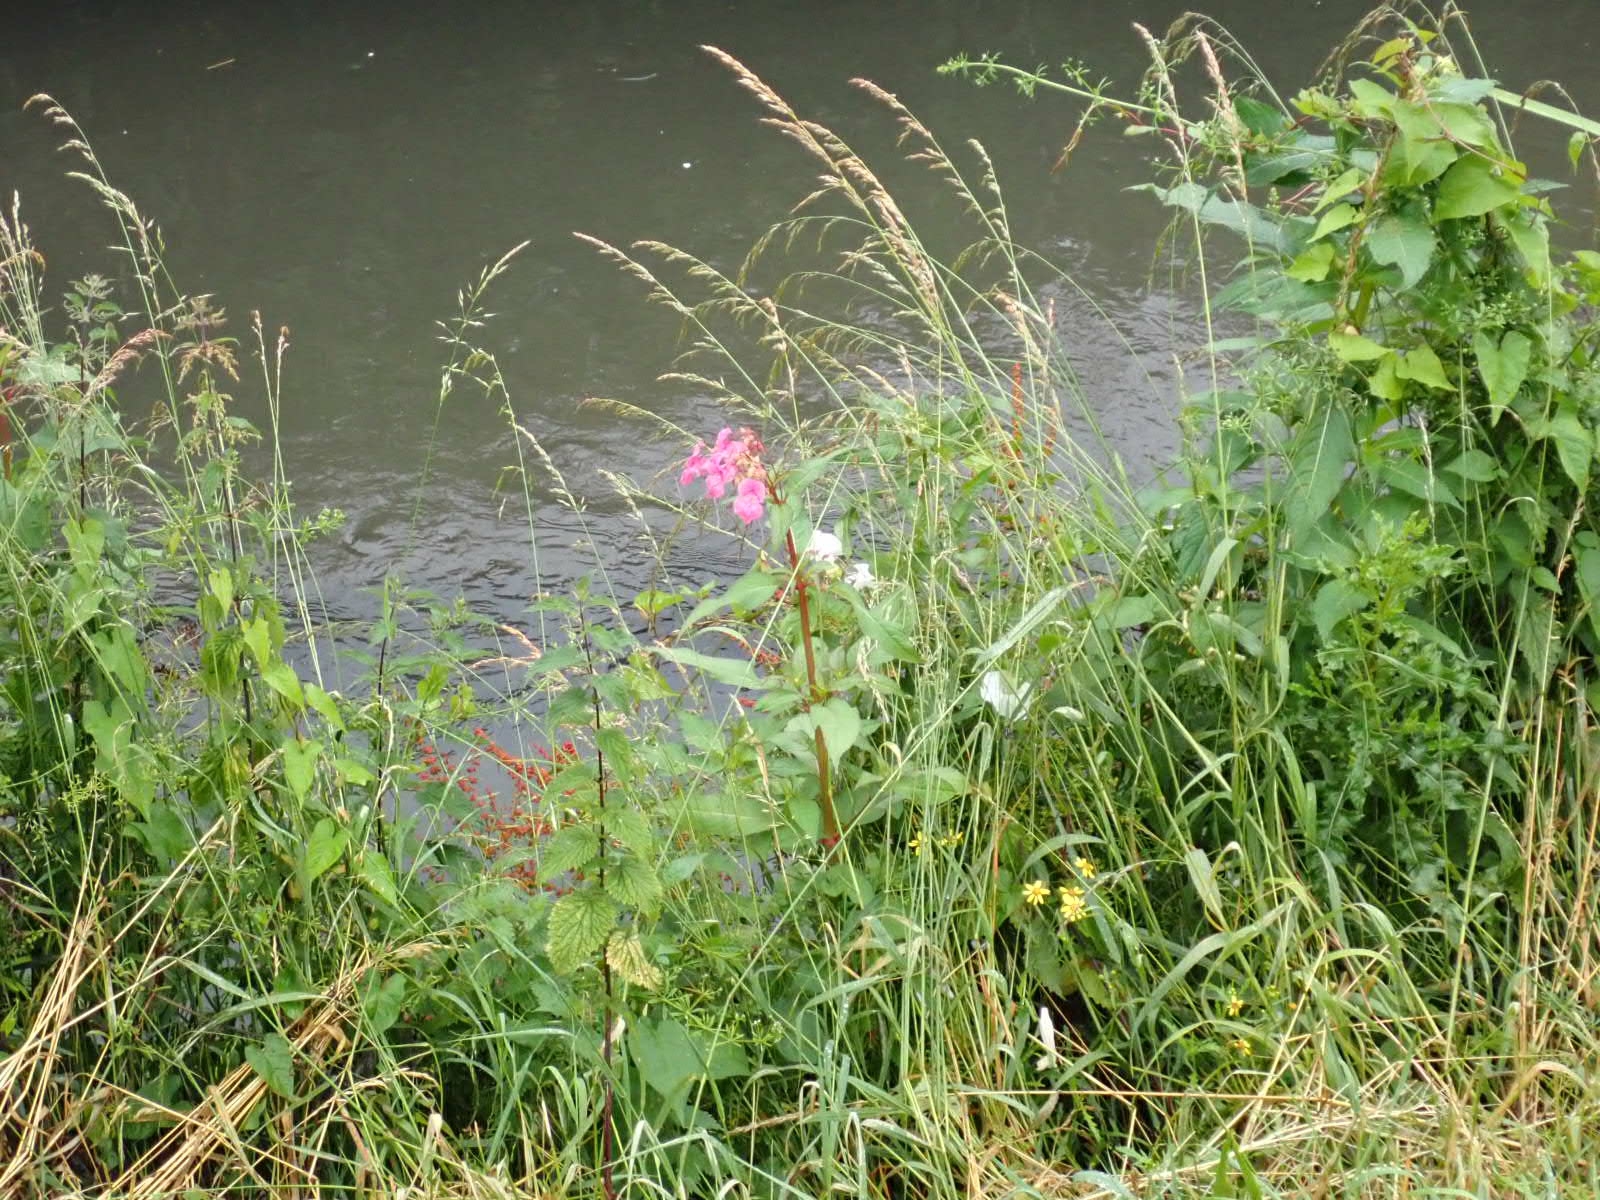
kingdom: Plantae
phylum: Tracheophyta
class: Magnoliopsida
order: Ericales
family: Balsaminaceae
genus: Impatiens
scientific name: Impatiens glandulifera
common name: Himalayan balsam
